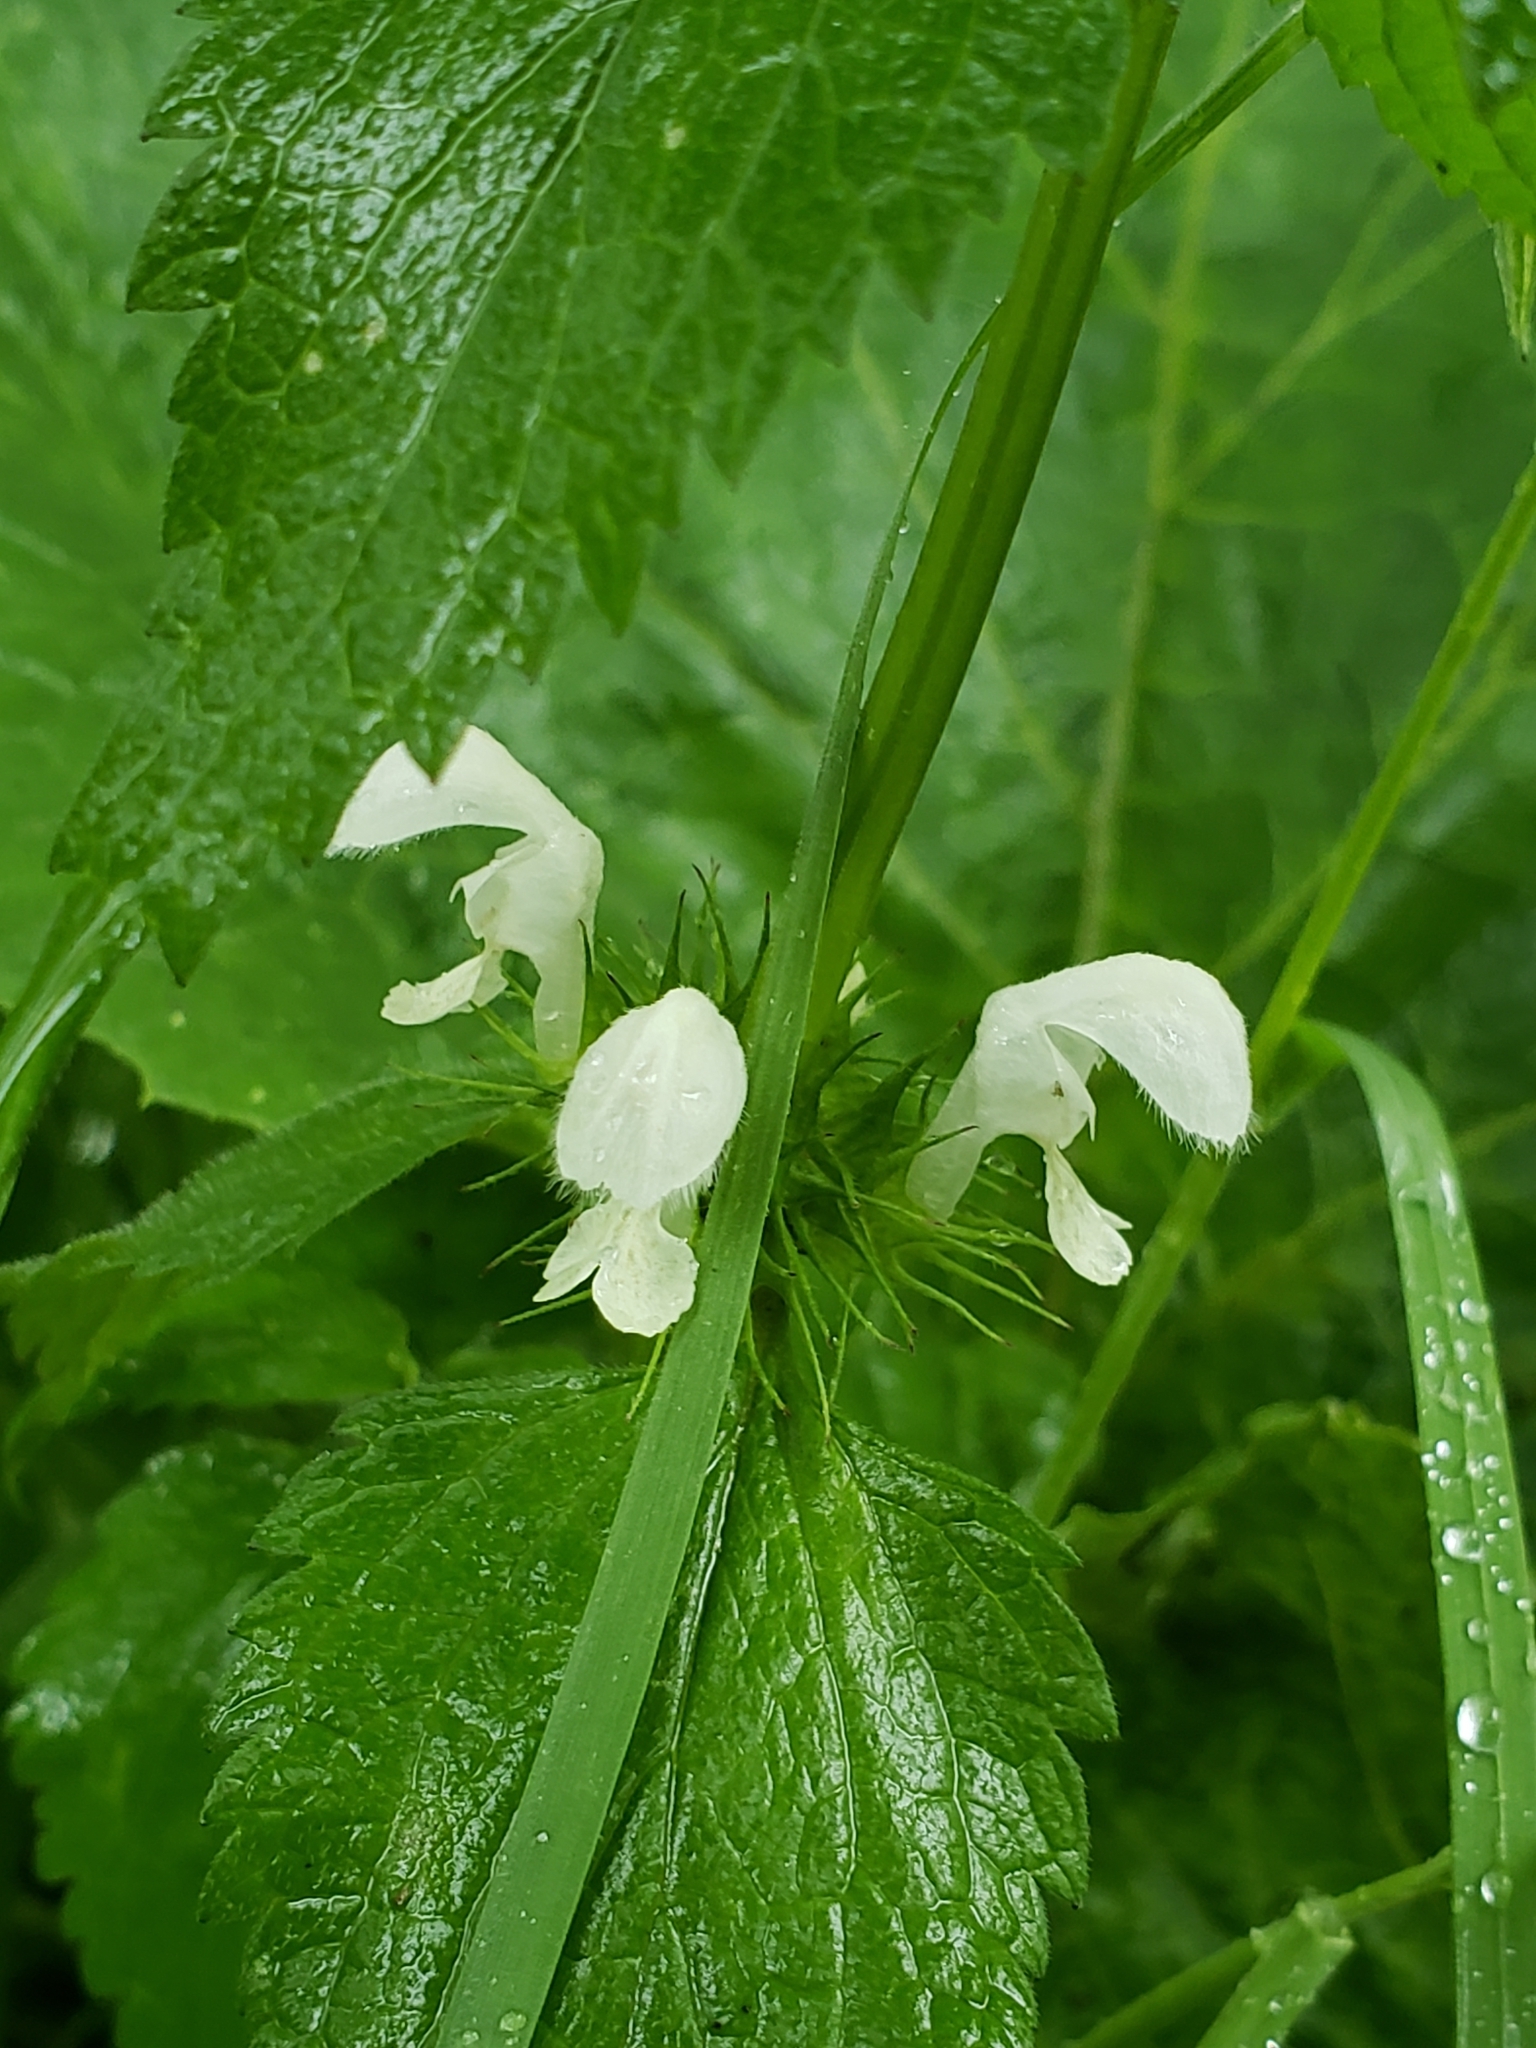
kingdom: Plantae
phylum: Tracheophyta
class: Magnoliopsida
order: Lamiales
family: Lamiaceae
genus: Lamium
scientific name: Lamium album
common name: White dead-nettle
